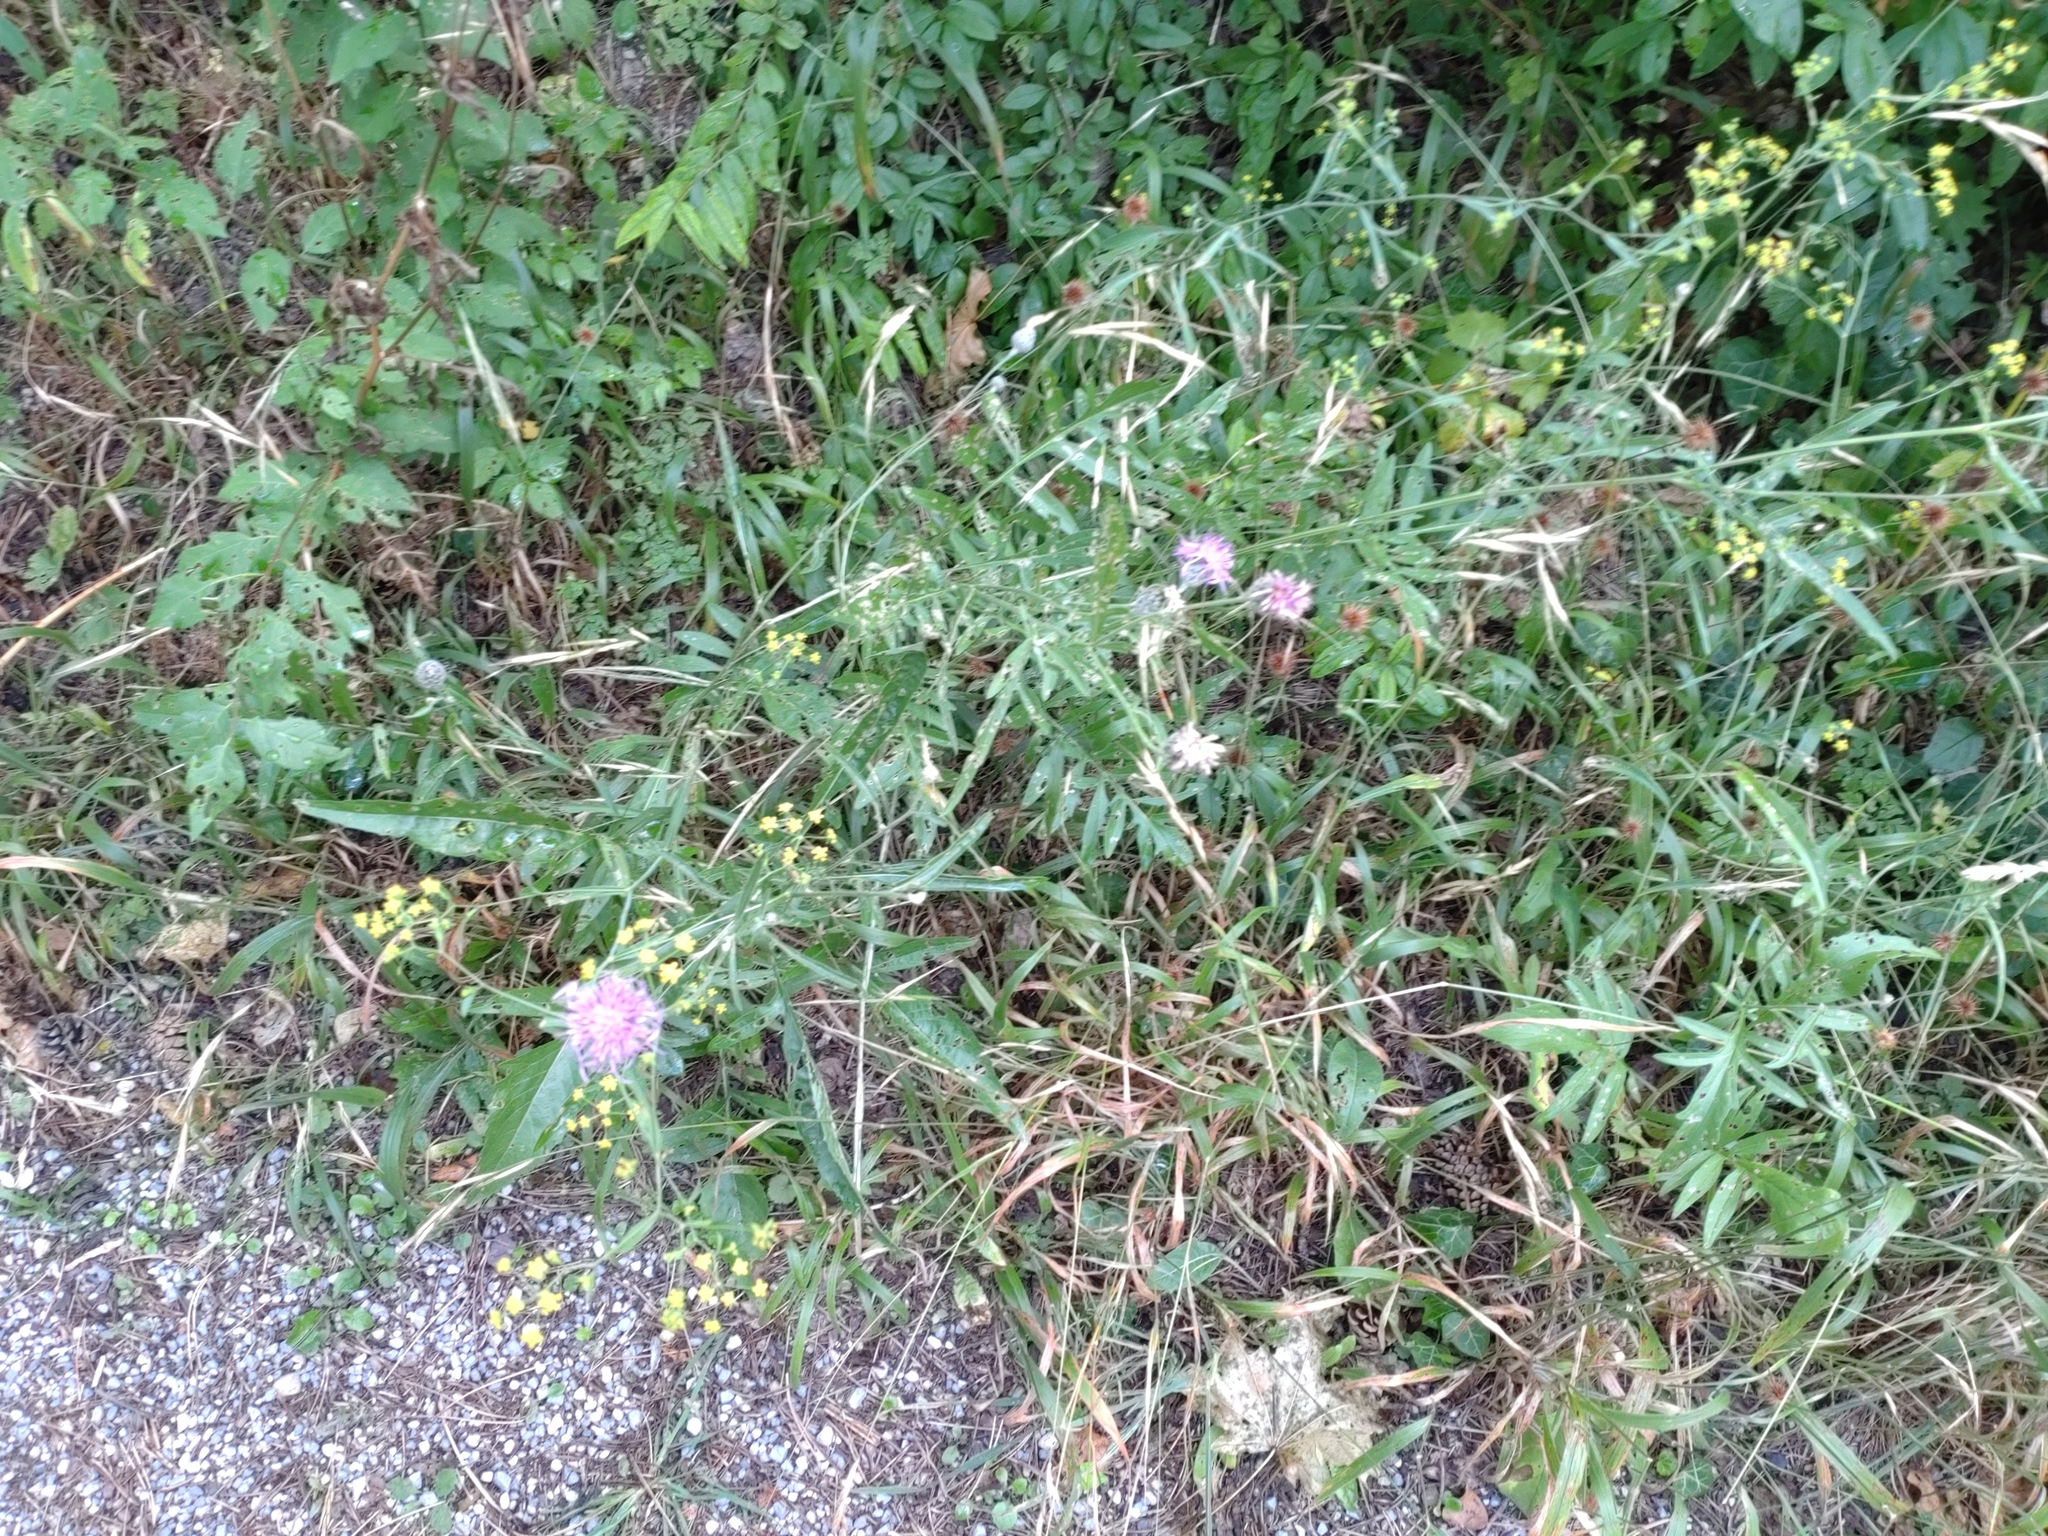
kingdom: Plantae
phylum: Tracheophyta
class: Magnoliopsida
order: Asterales
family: Asteraceae
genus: Centaurea
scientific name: Centaurea scabiosa
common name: Greater knapweed
